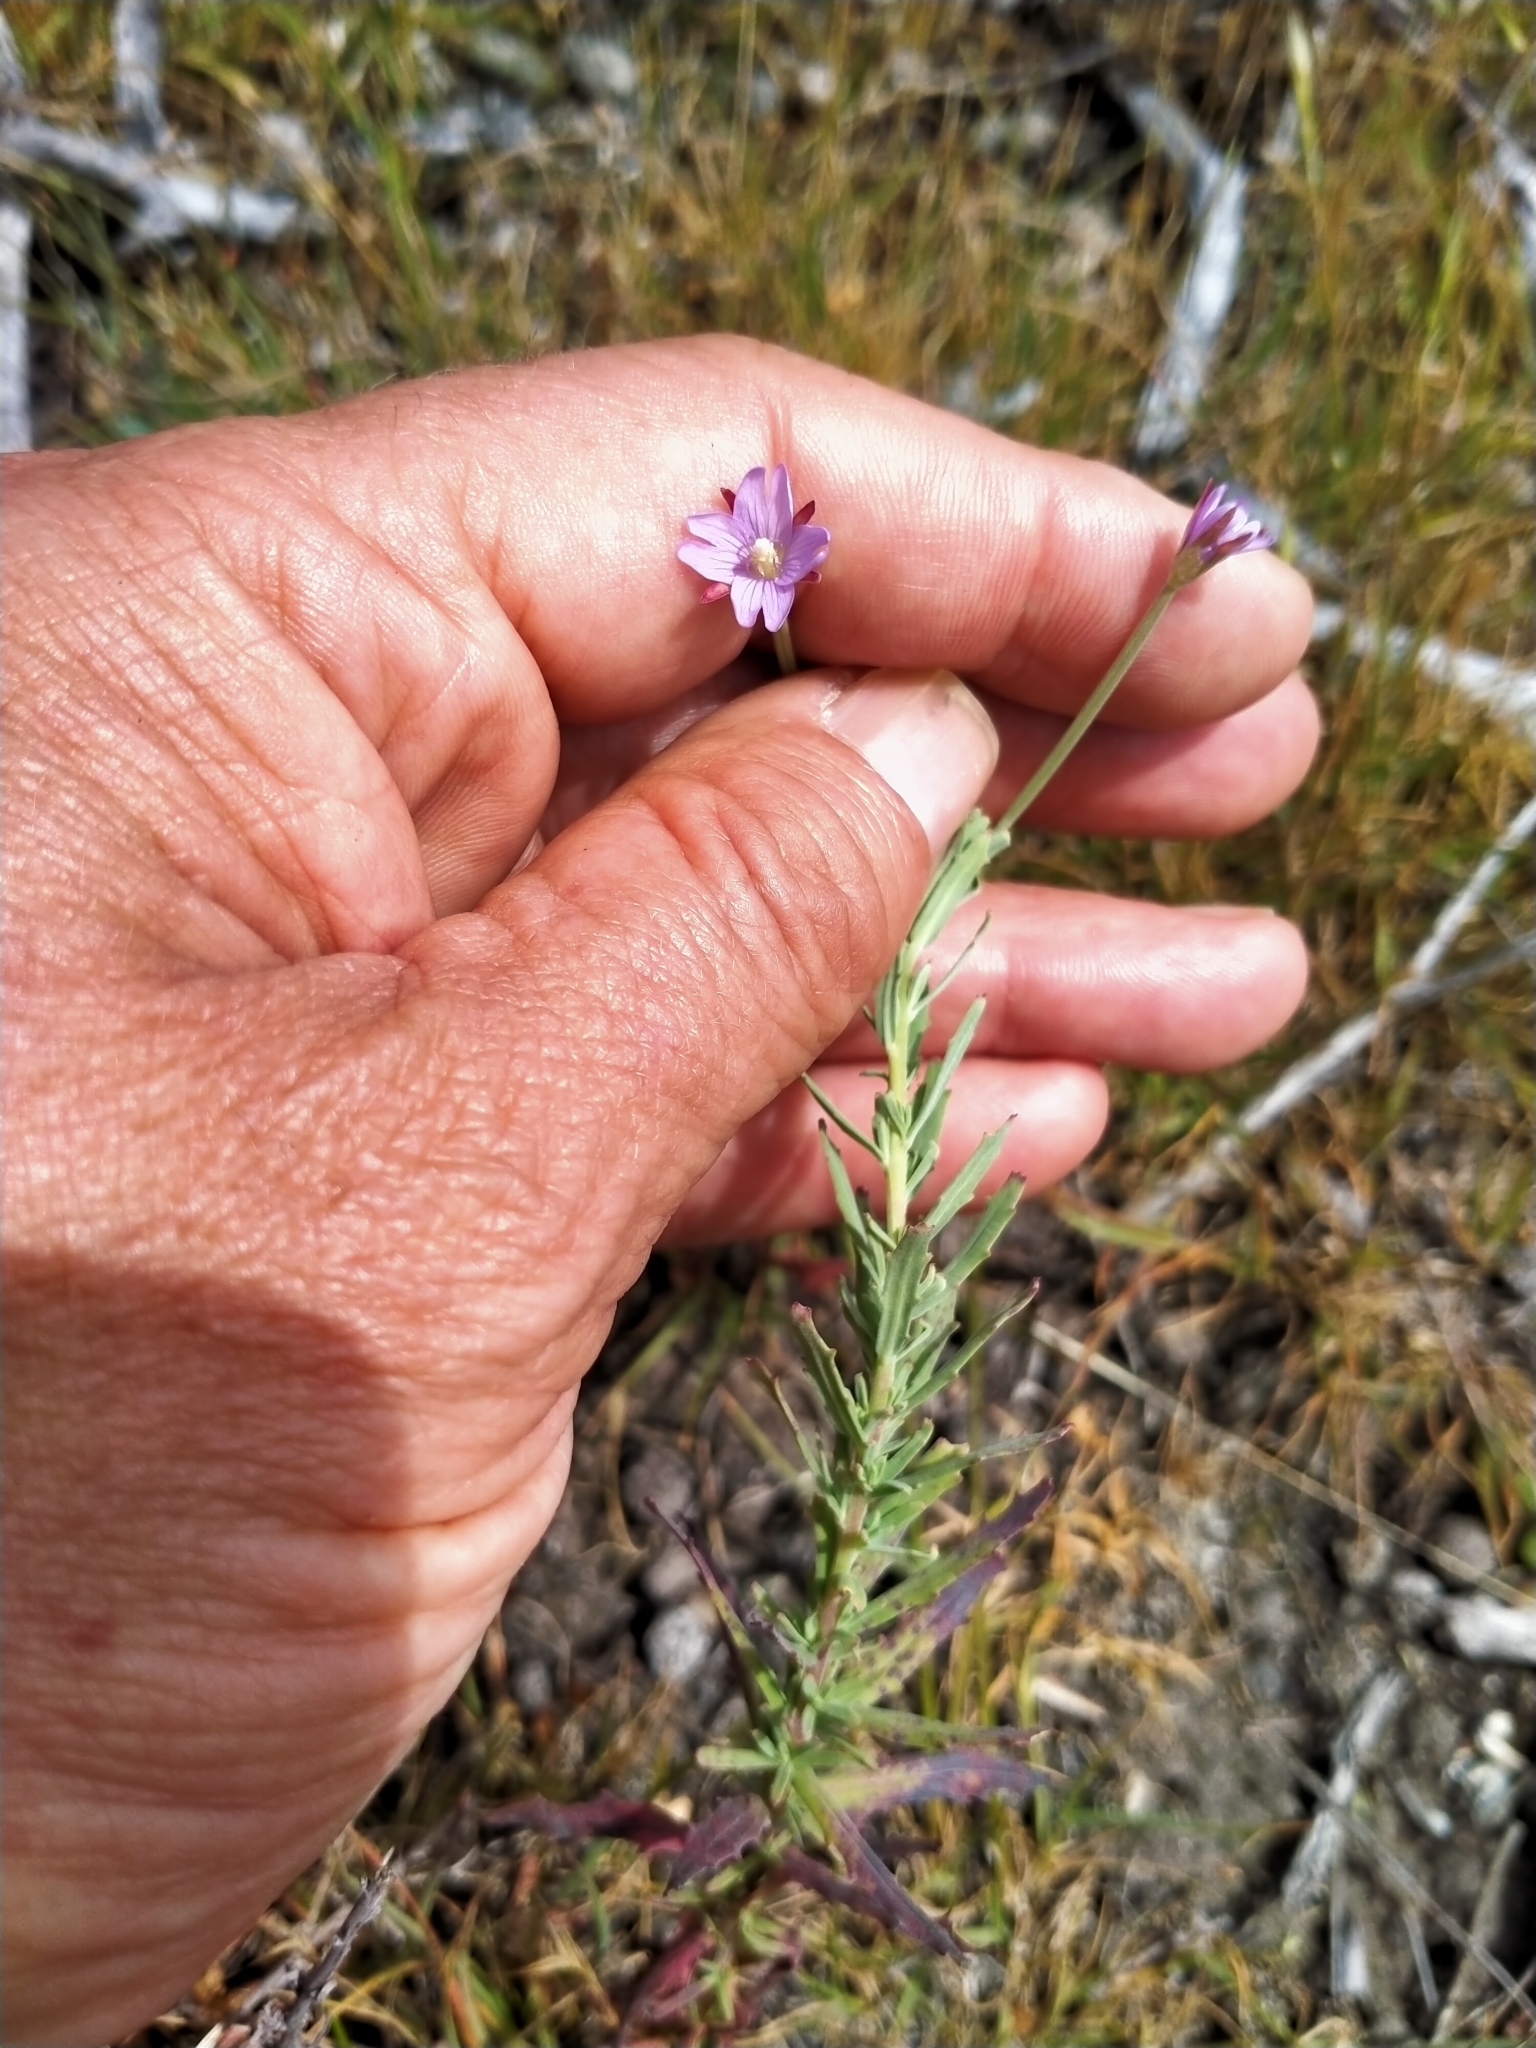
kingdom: Plantae
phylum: Tracheophyta
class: Magnoliopsida
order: Myrtales
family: Onagraceae
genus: Epilobium
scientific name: Epilobium billardierianum
